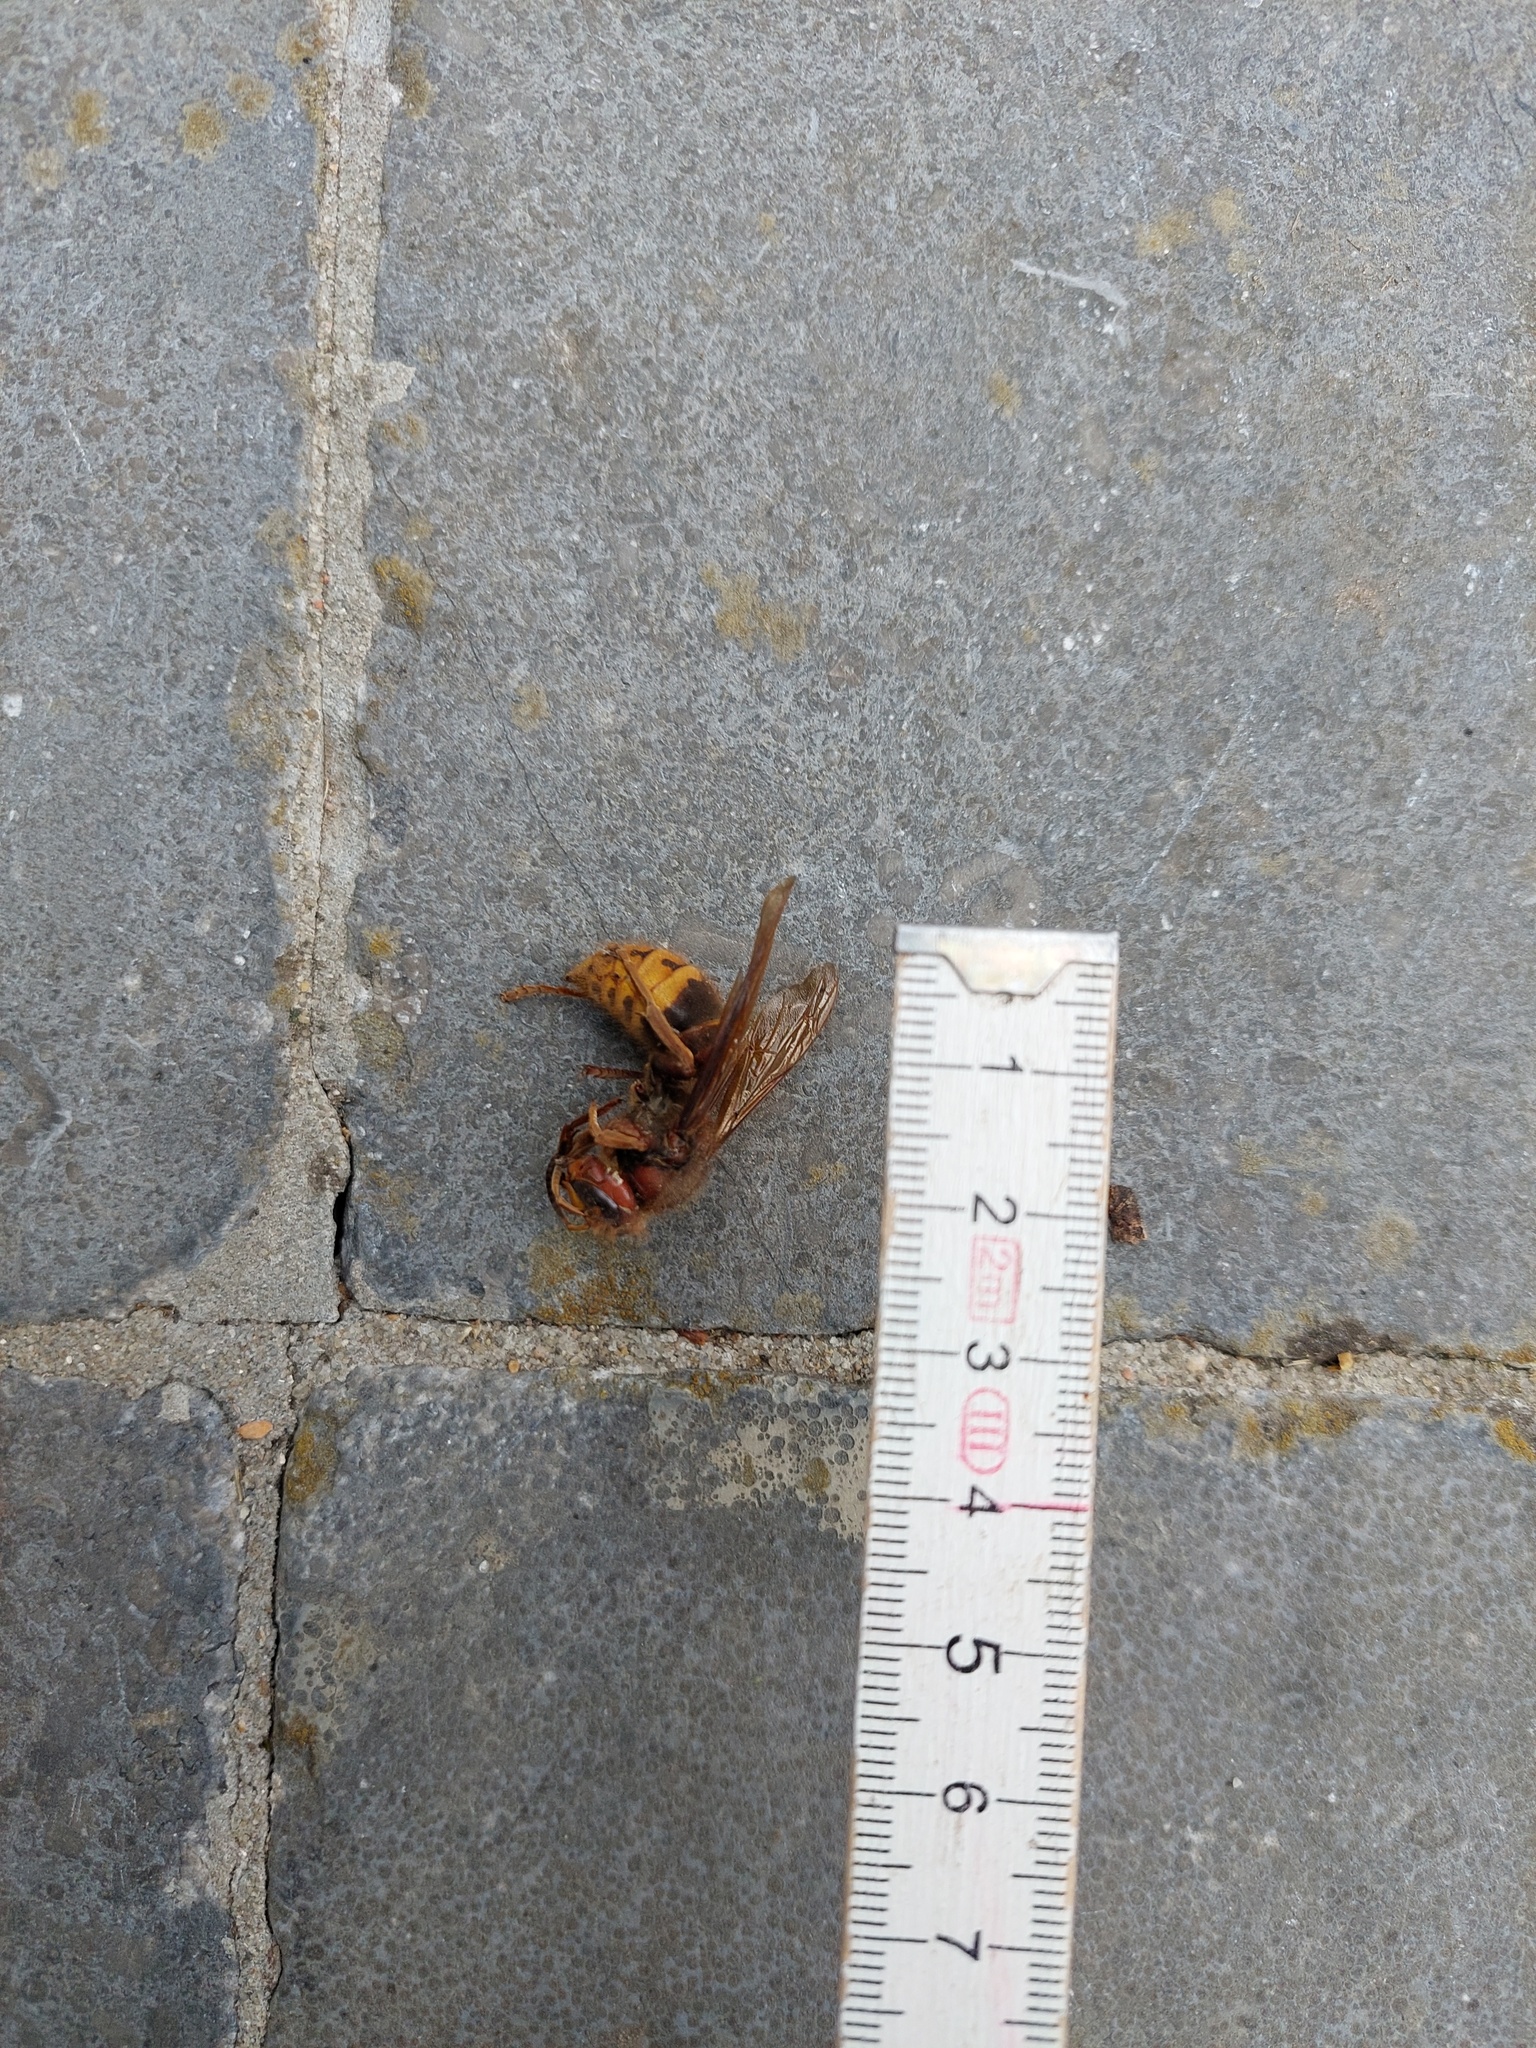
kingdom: Animalia
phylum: Arthropoda
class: Insecta
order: Hymenoptera
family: Vespidae
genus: Vespa
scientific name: Vespa crabro
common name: Hornet
